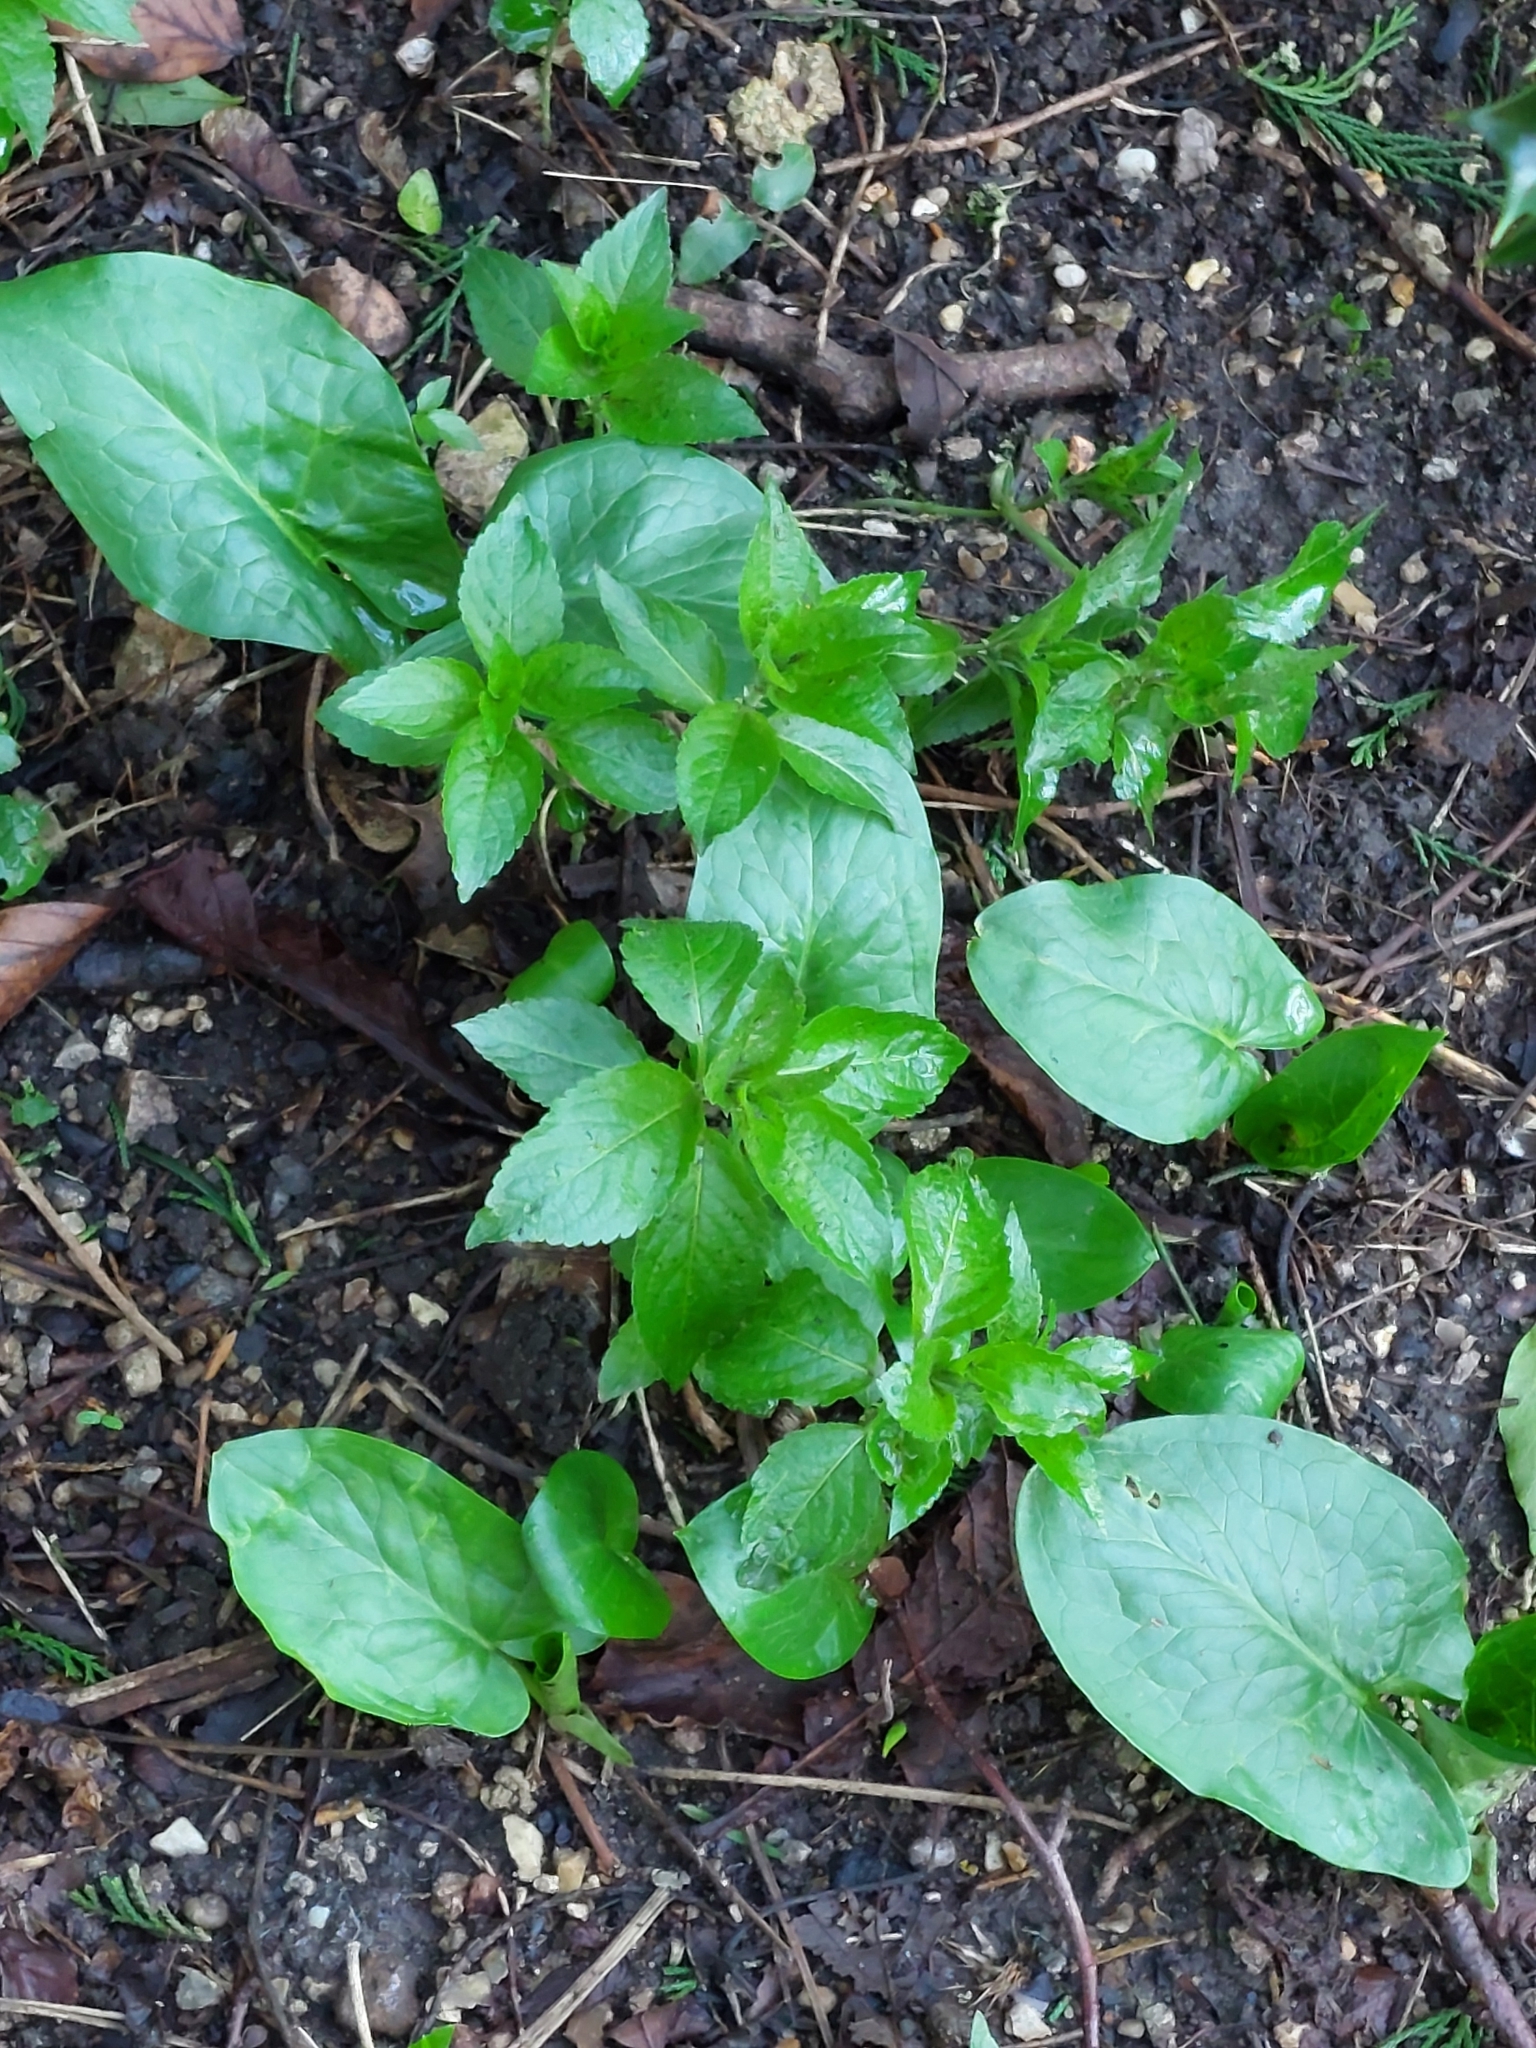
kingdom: Plantae
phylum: Tracheophyta
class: Magnoliopsida
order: Malpighiales
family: Euphorbiaceae
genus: Mercurialis
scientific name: Mercurialis perennis
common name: Dog mercury
